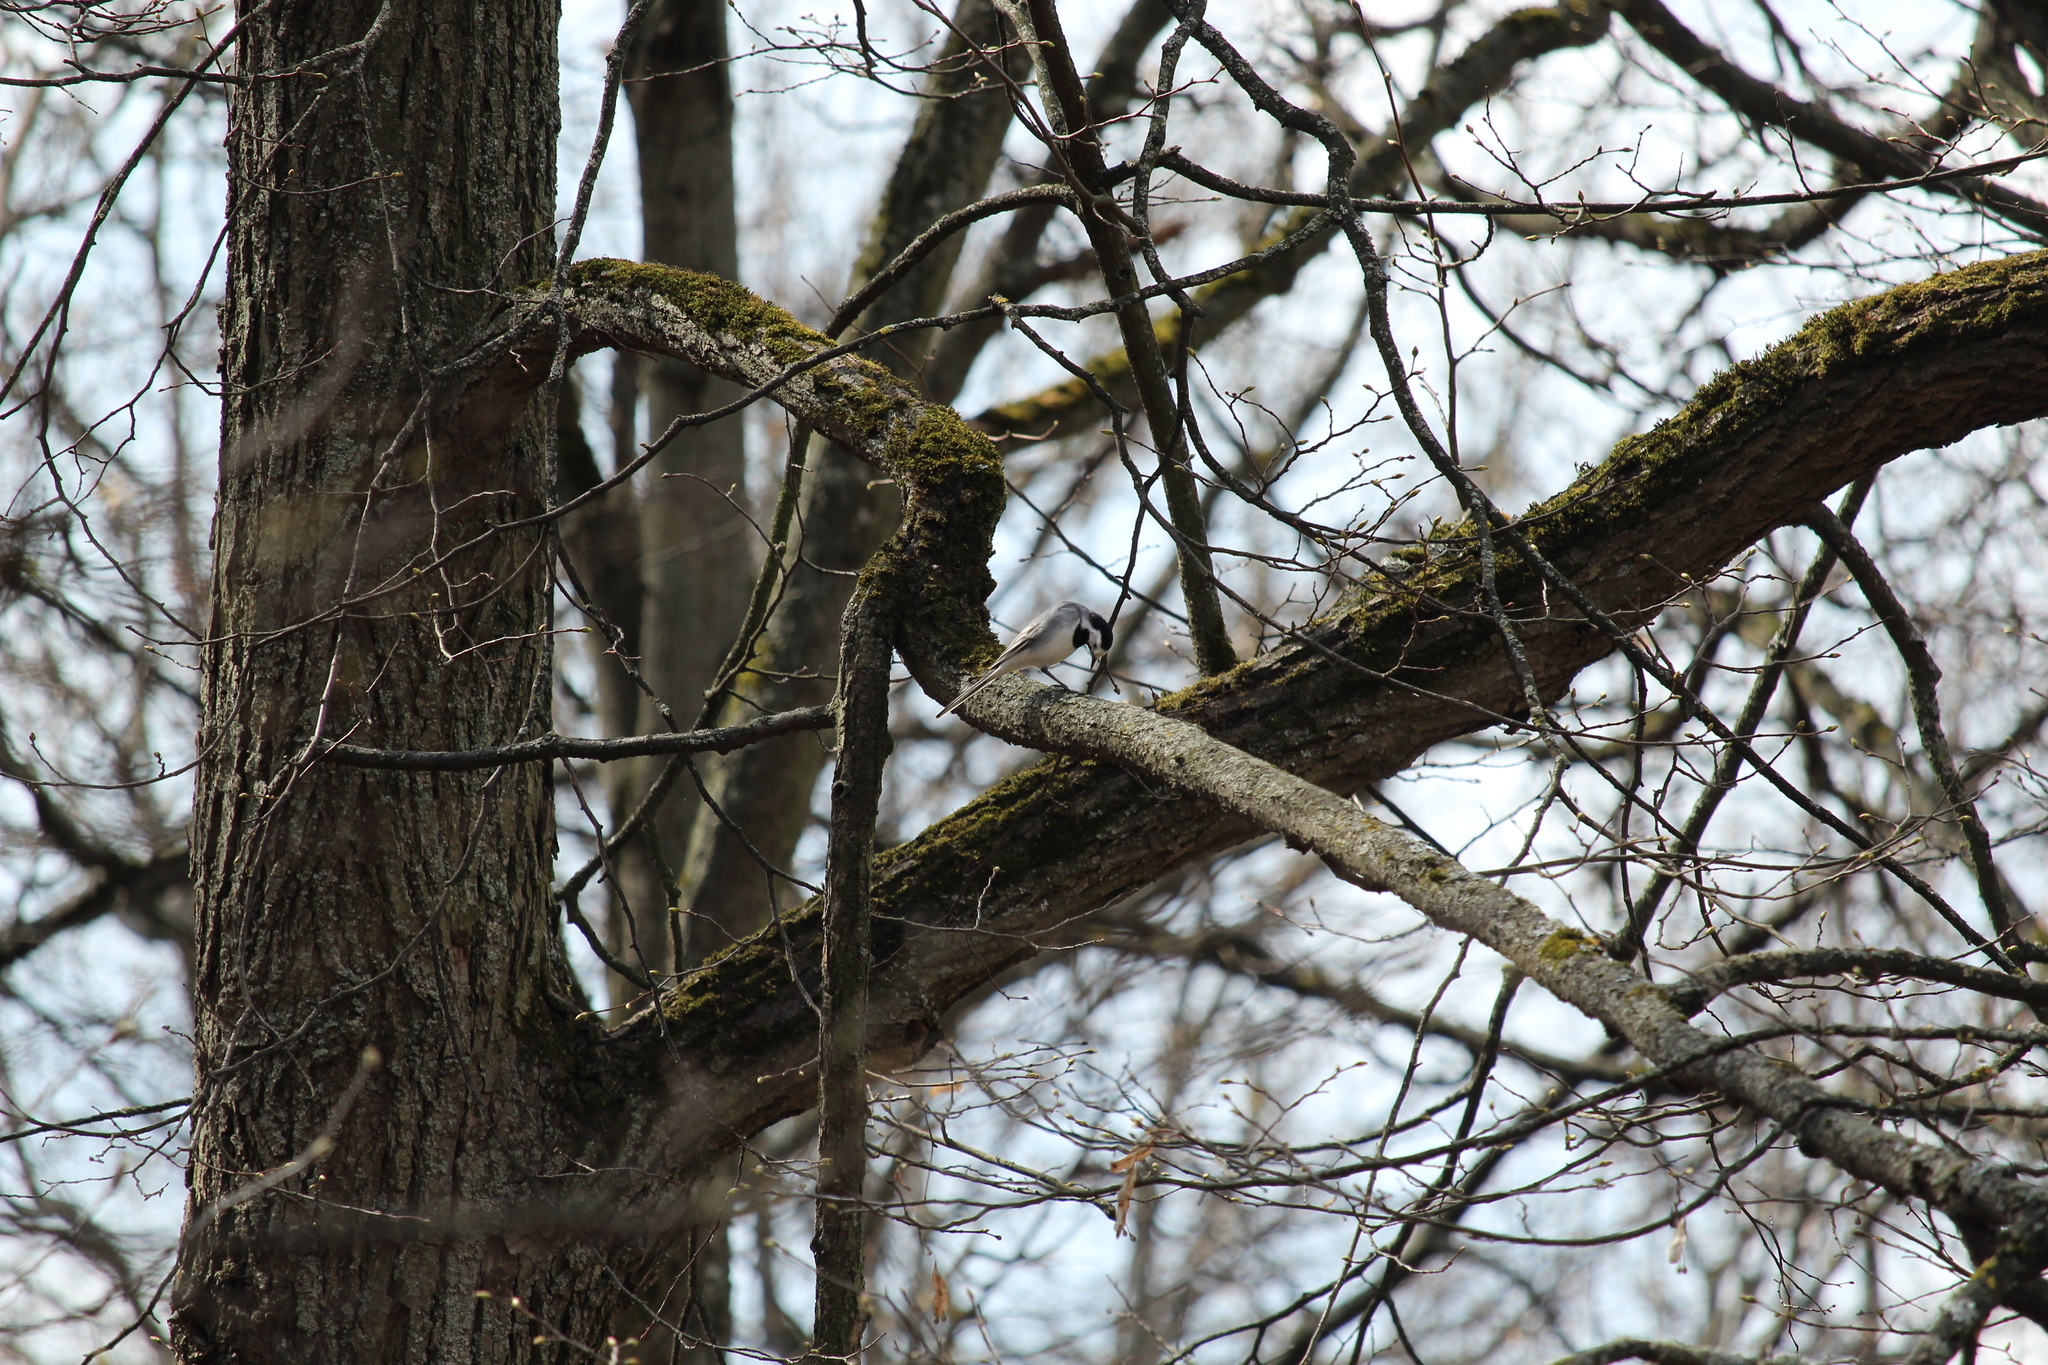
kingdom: Animalia
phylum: Chordata
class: Aves
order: Passeriformes
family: Motacillidae
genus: Motacilla
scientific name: Motacilla alba
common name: White wagtail
